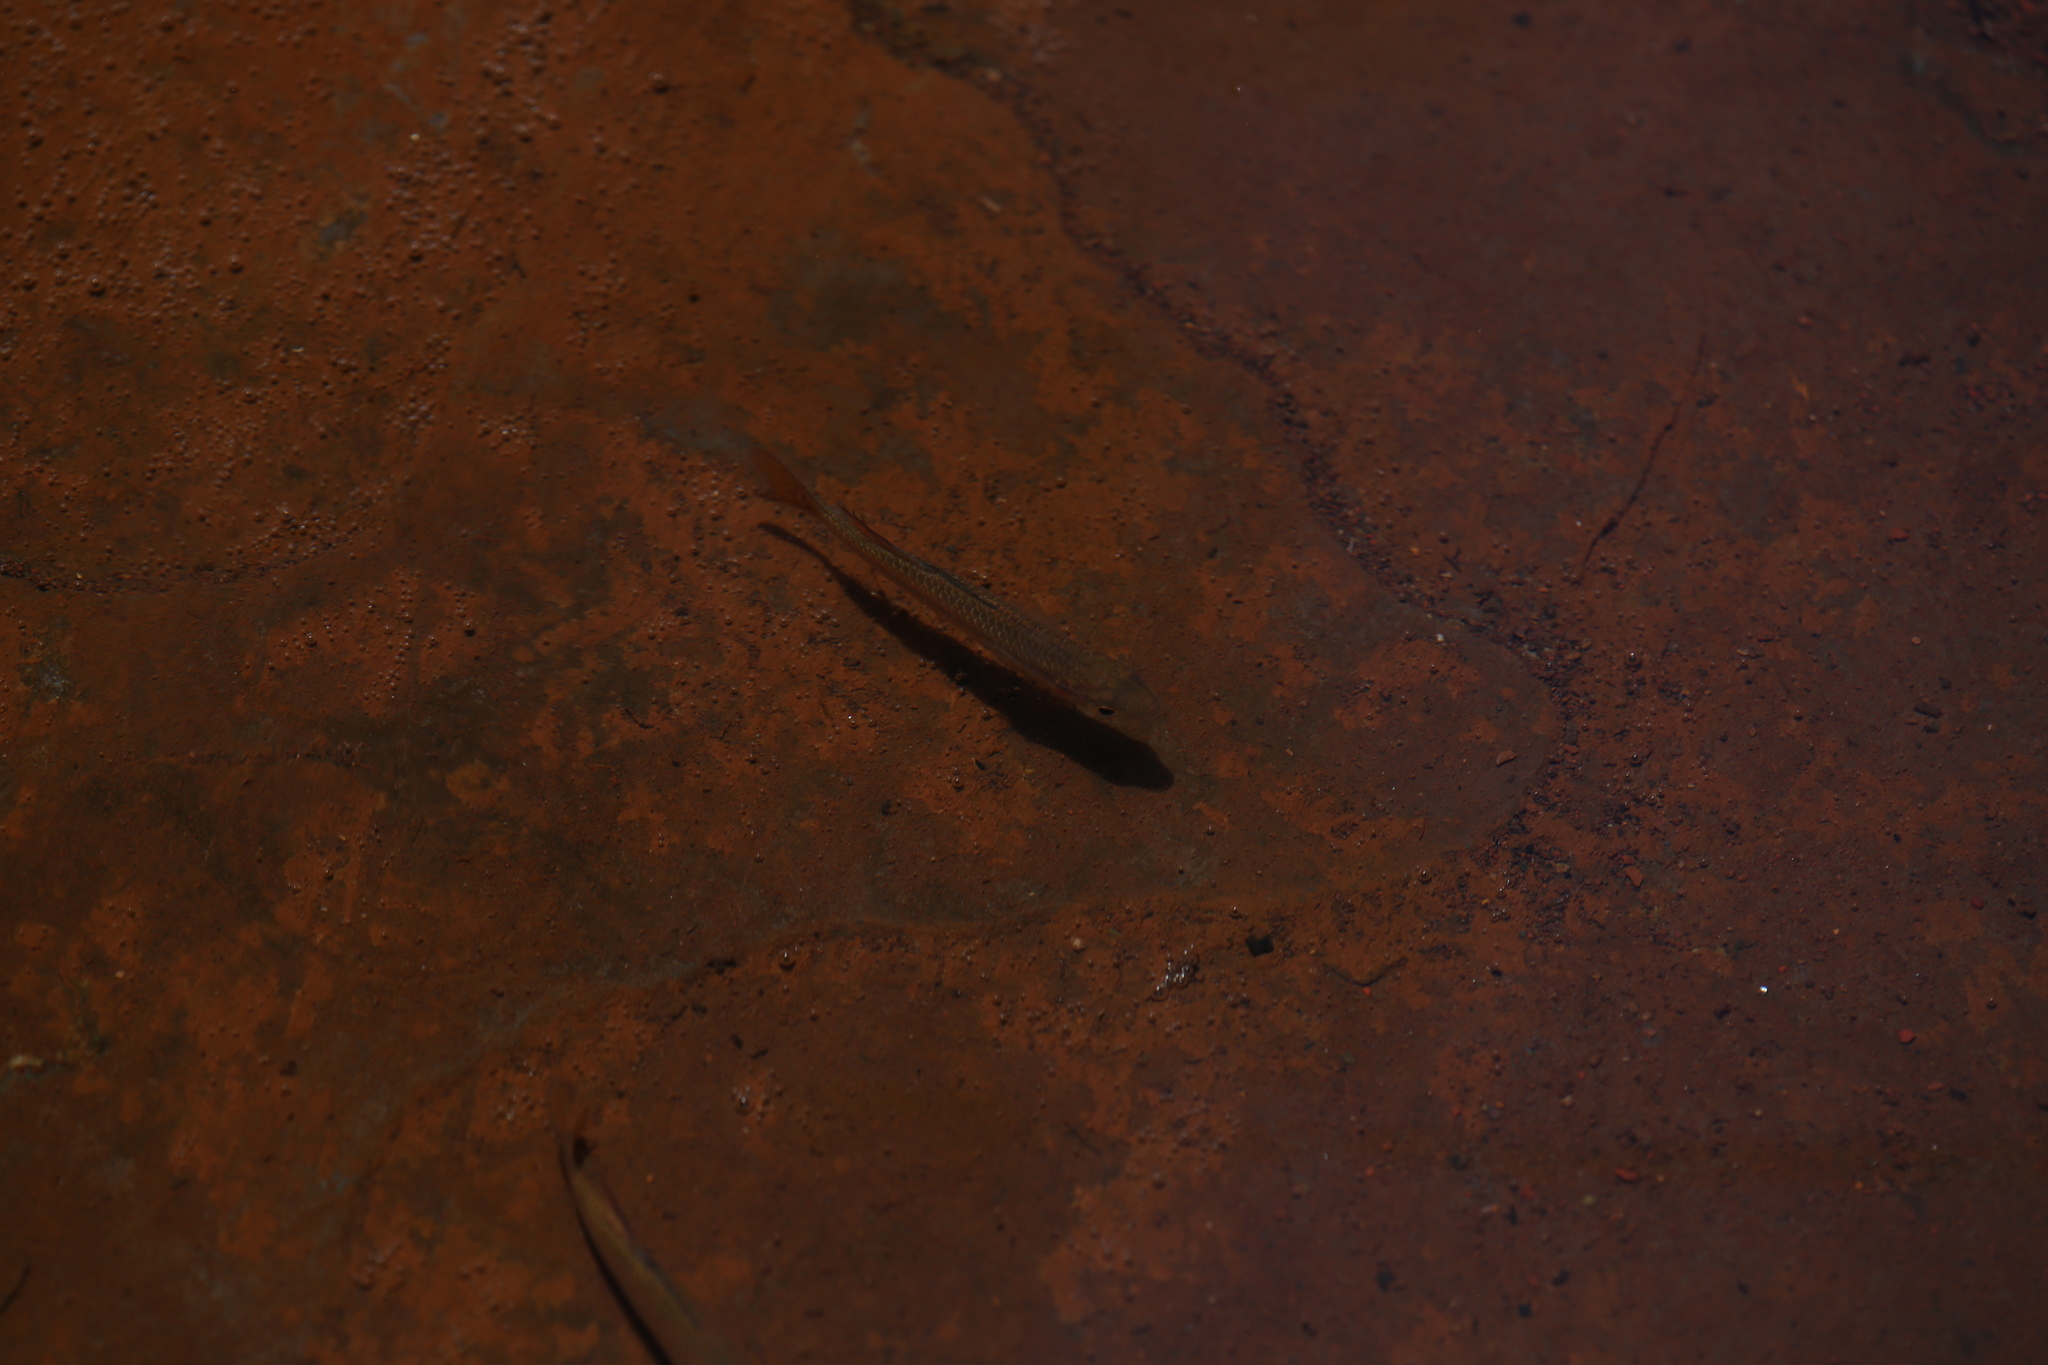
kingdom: Animalia
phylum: Chordata
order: Atheriniformes
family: Melanotaeniidae
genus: Melanotaenia
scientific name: Melanotaenia australis
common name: Western rainbowfish
